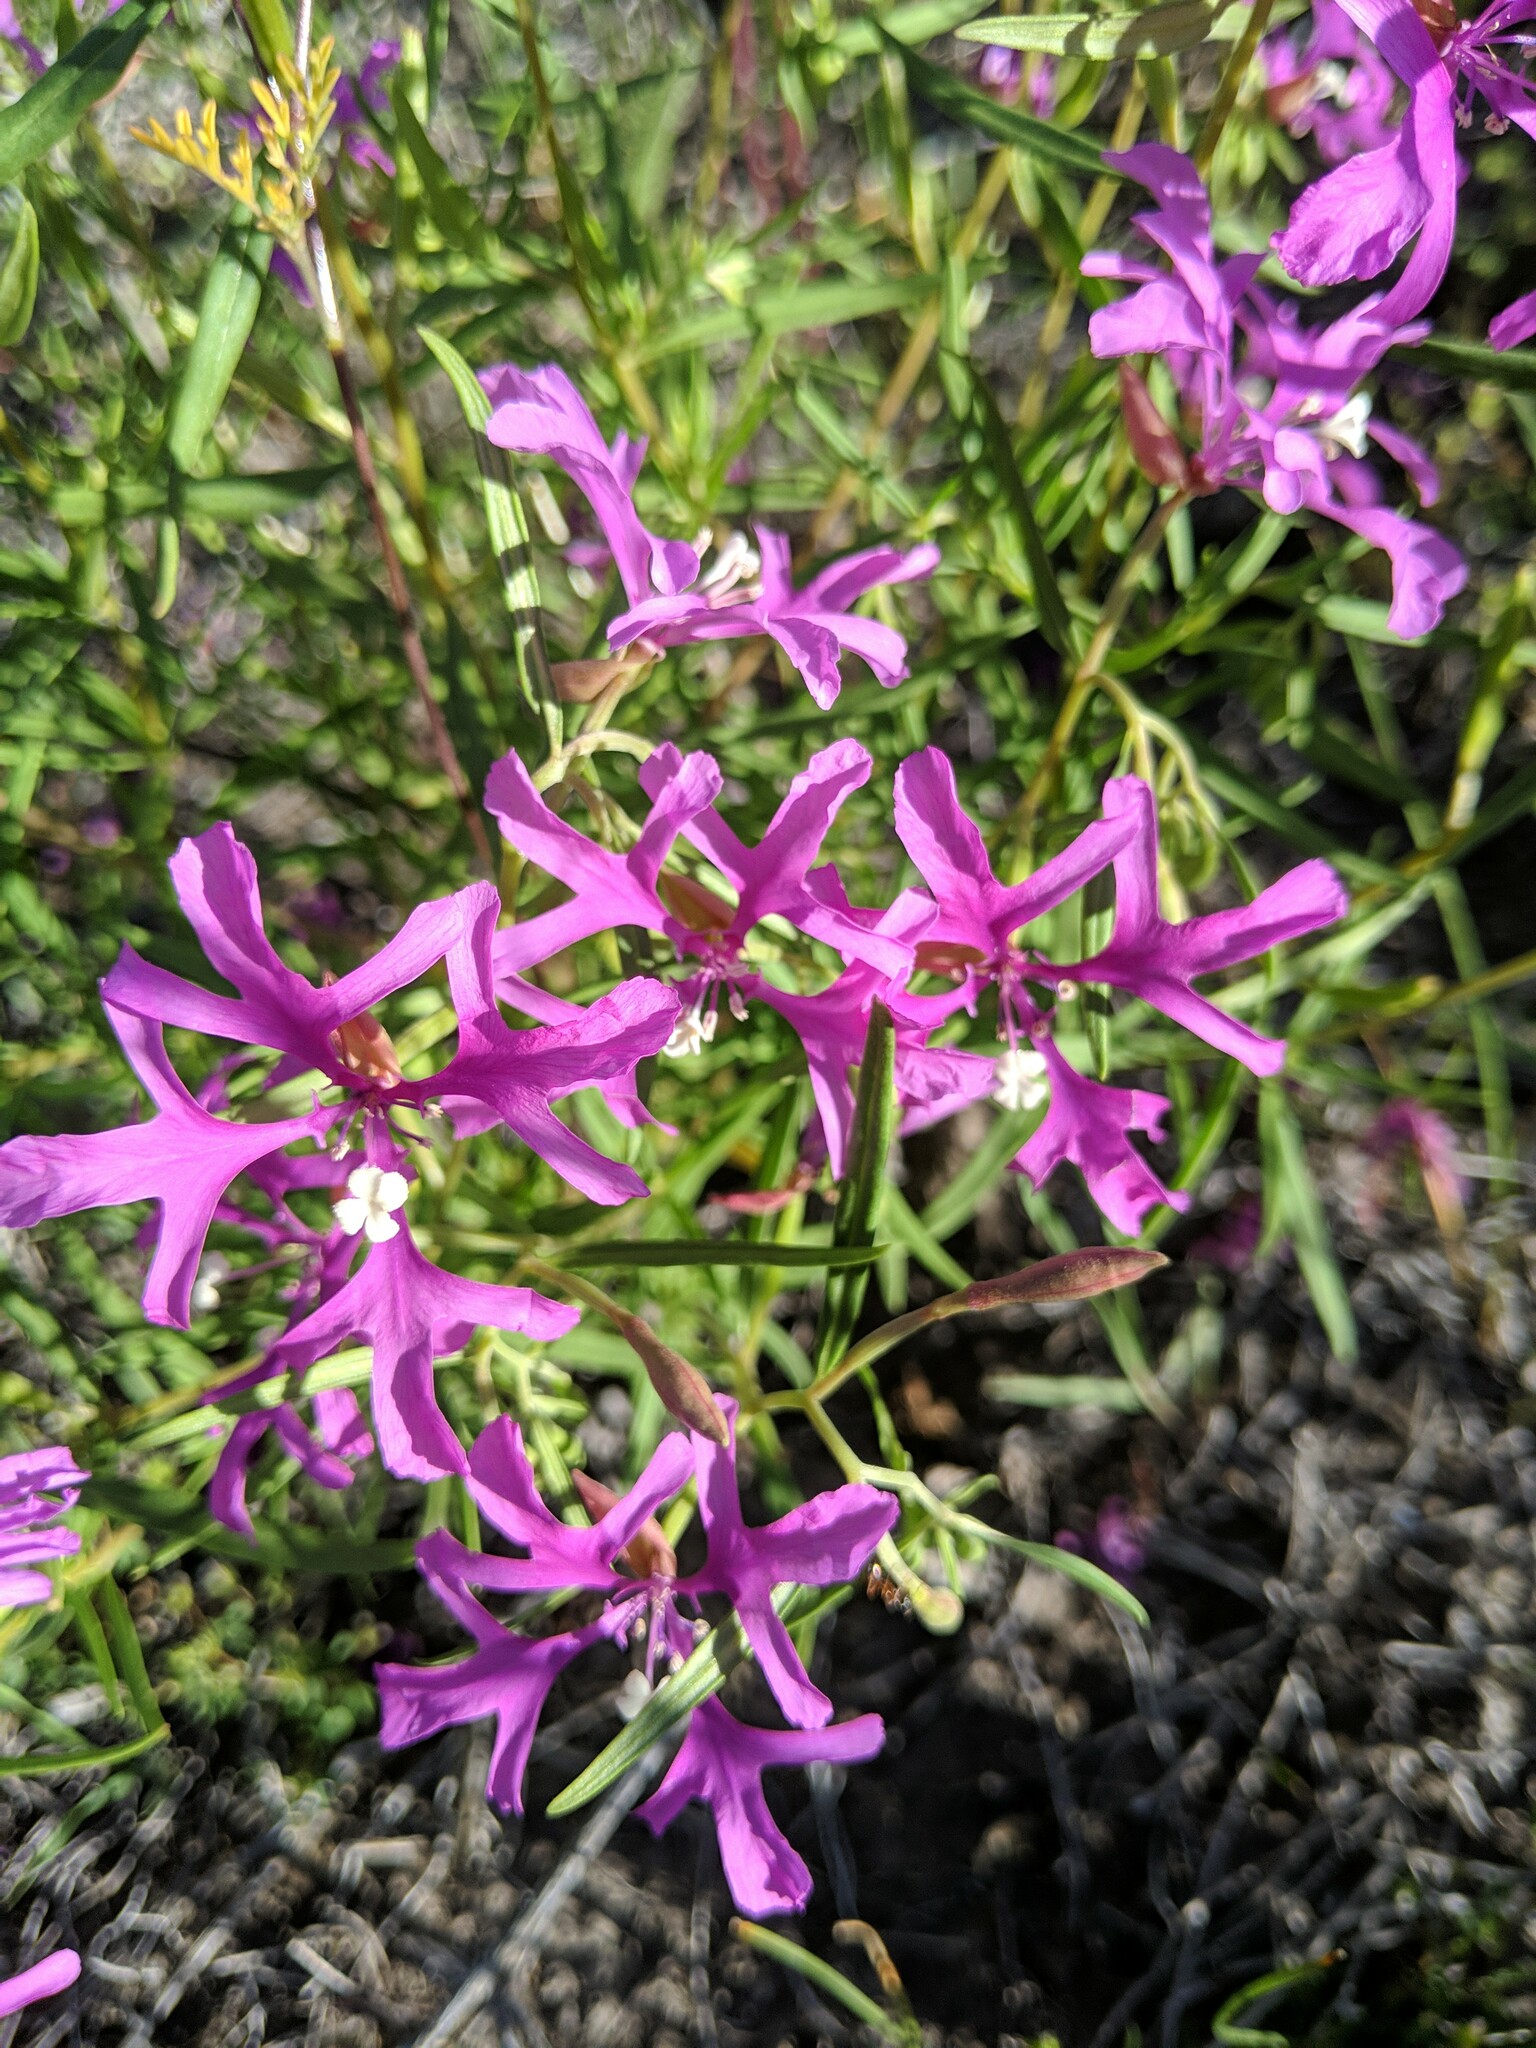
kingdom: Plantae
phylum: Tracheophyta
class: Magnoliopsida
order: Myrtales
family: Onagraceae
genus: Clarkia
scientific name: Clarkia pulchella
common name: Deer horn
